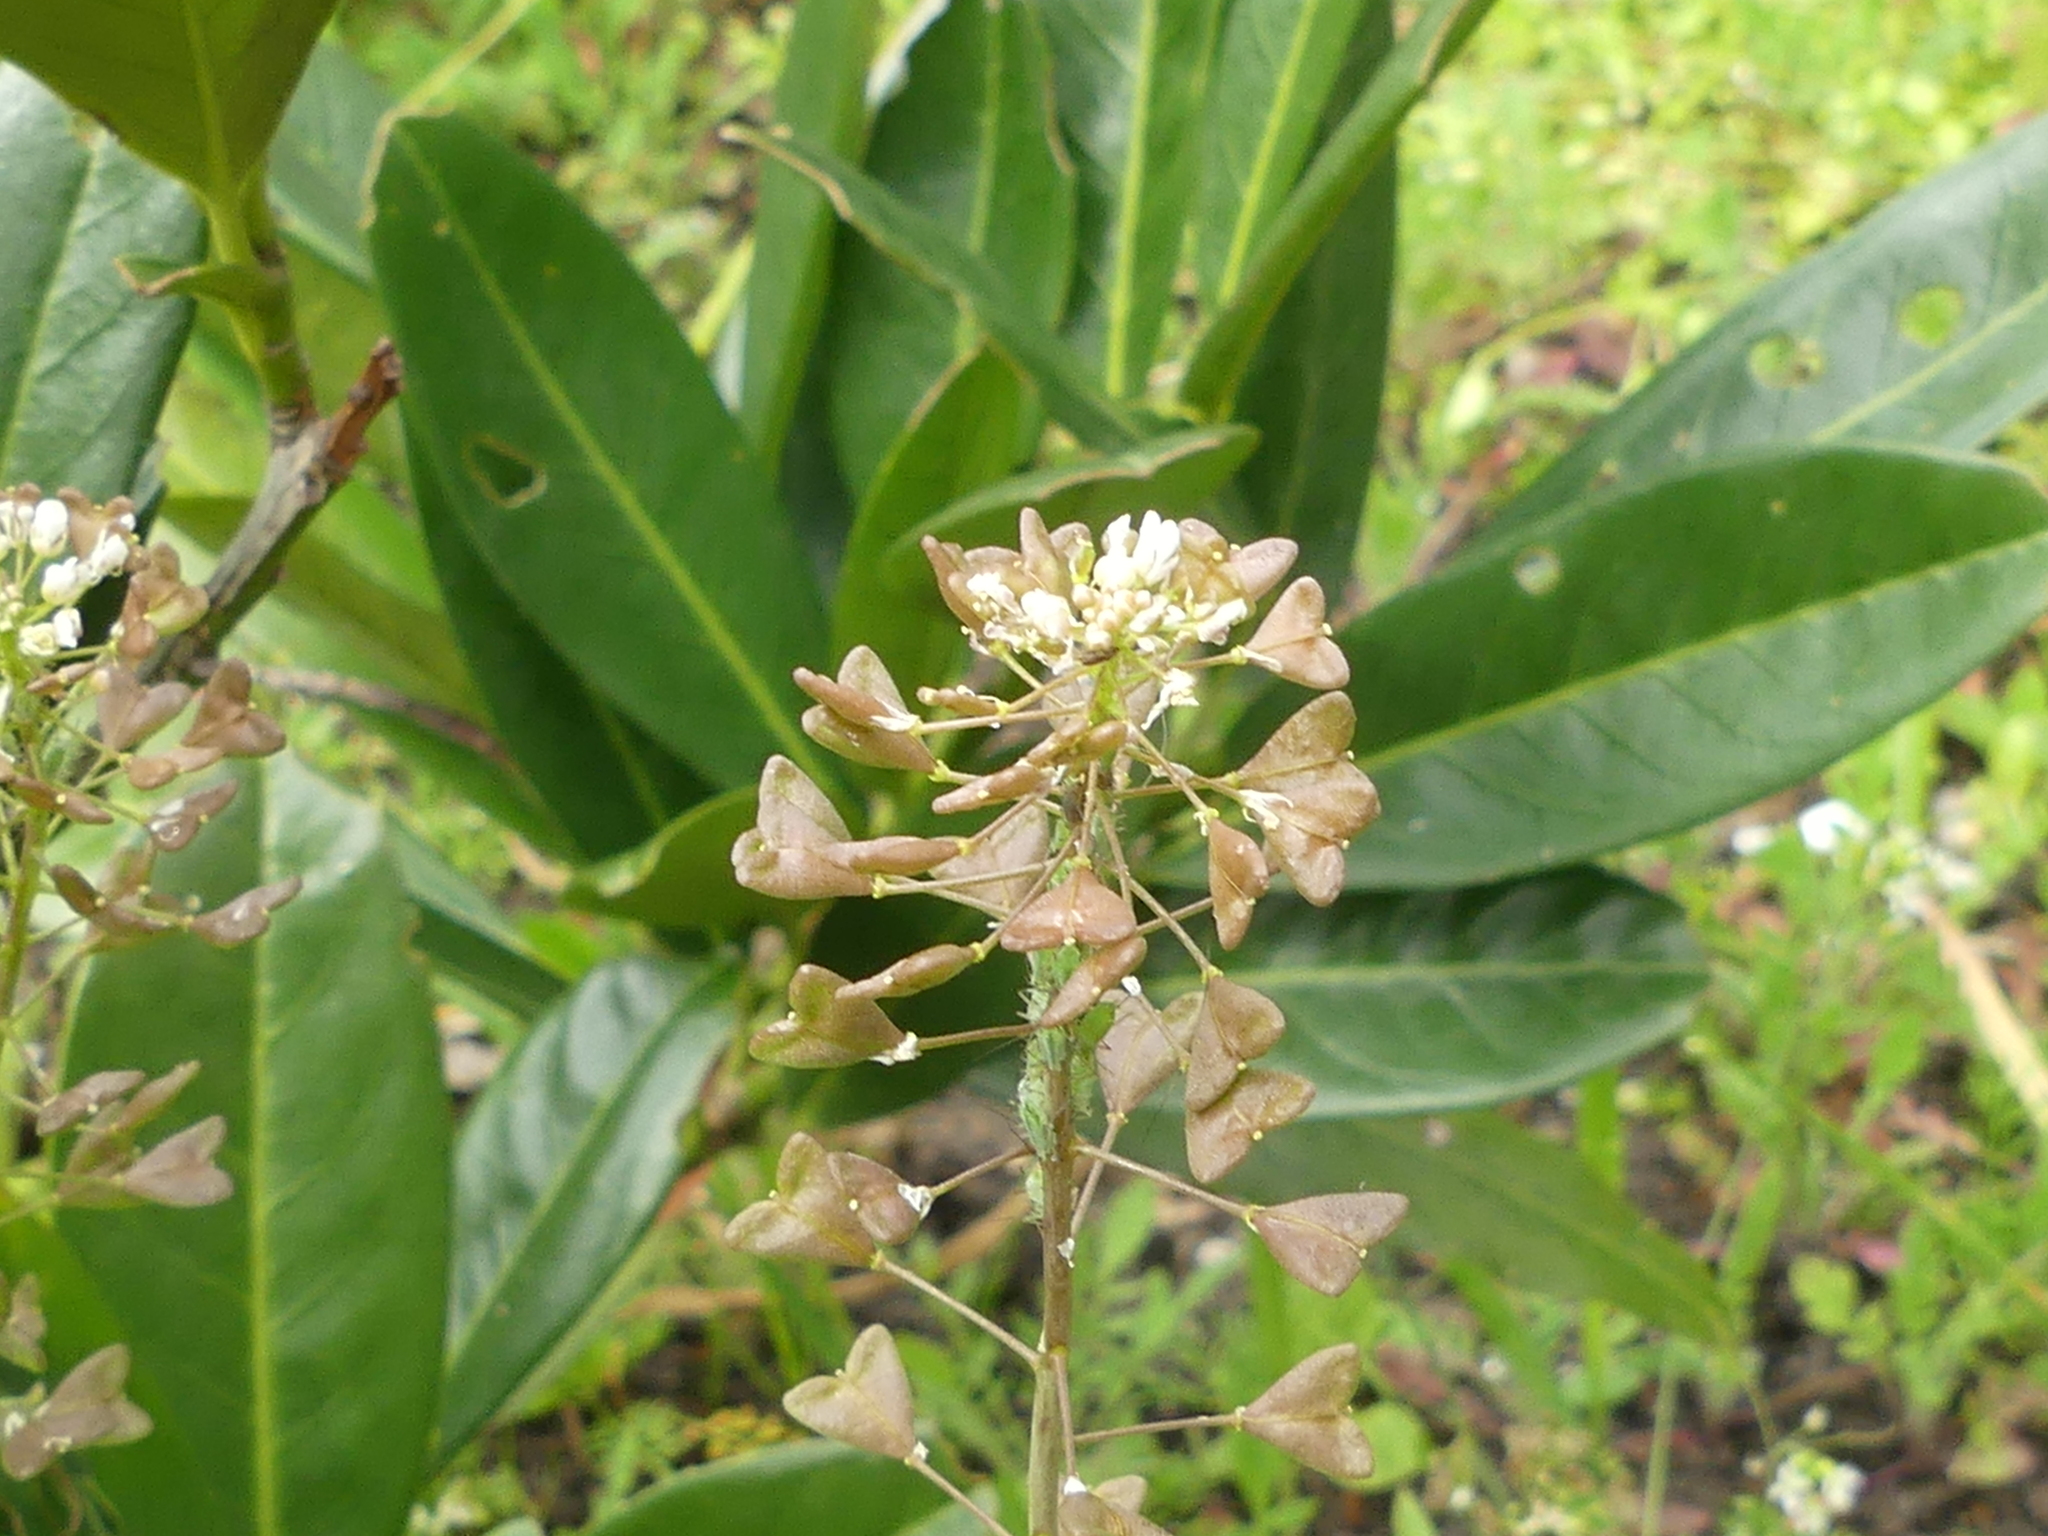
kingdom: Plantae
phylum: Tracheophyta
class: Magnoliopsida
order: Brassicales
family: Brassicaceae
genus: Capsella
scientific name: Capsella bursa-pastoris
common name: Shepherd's purse
